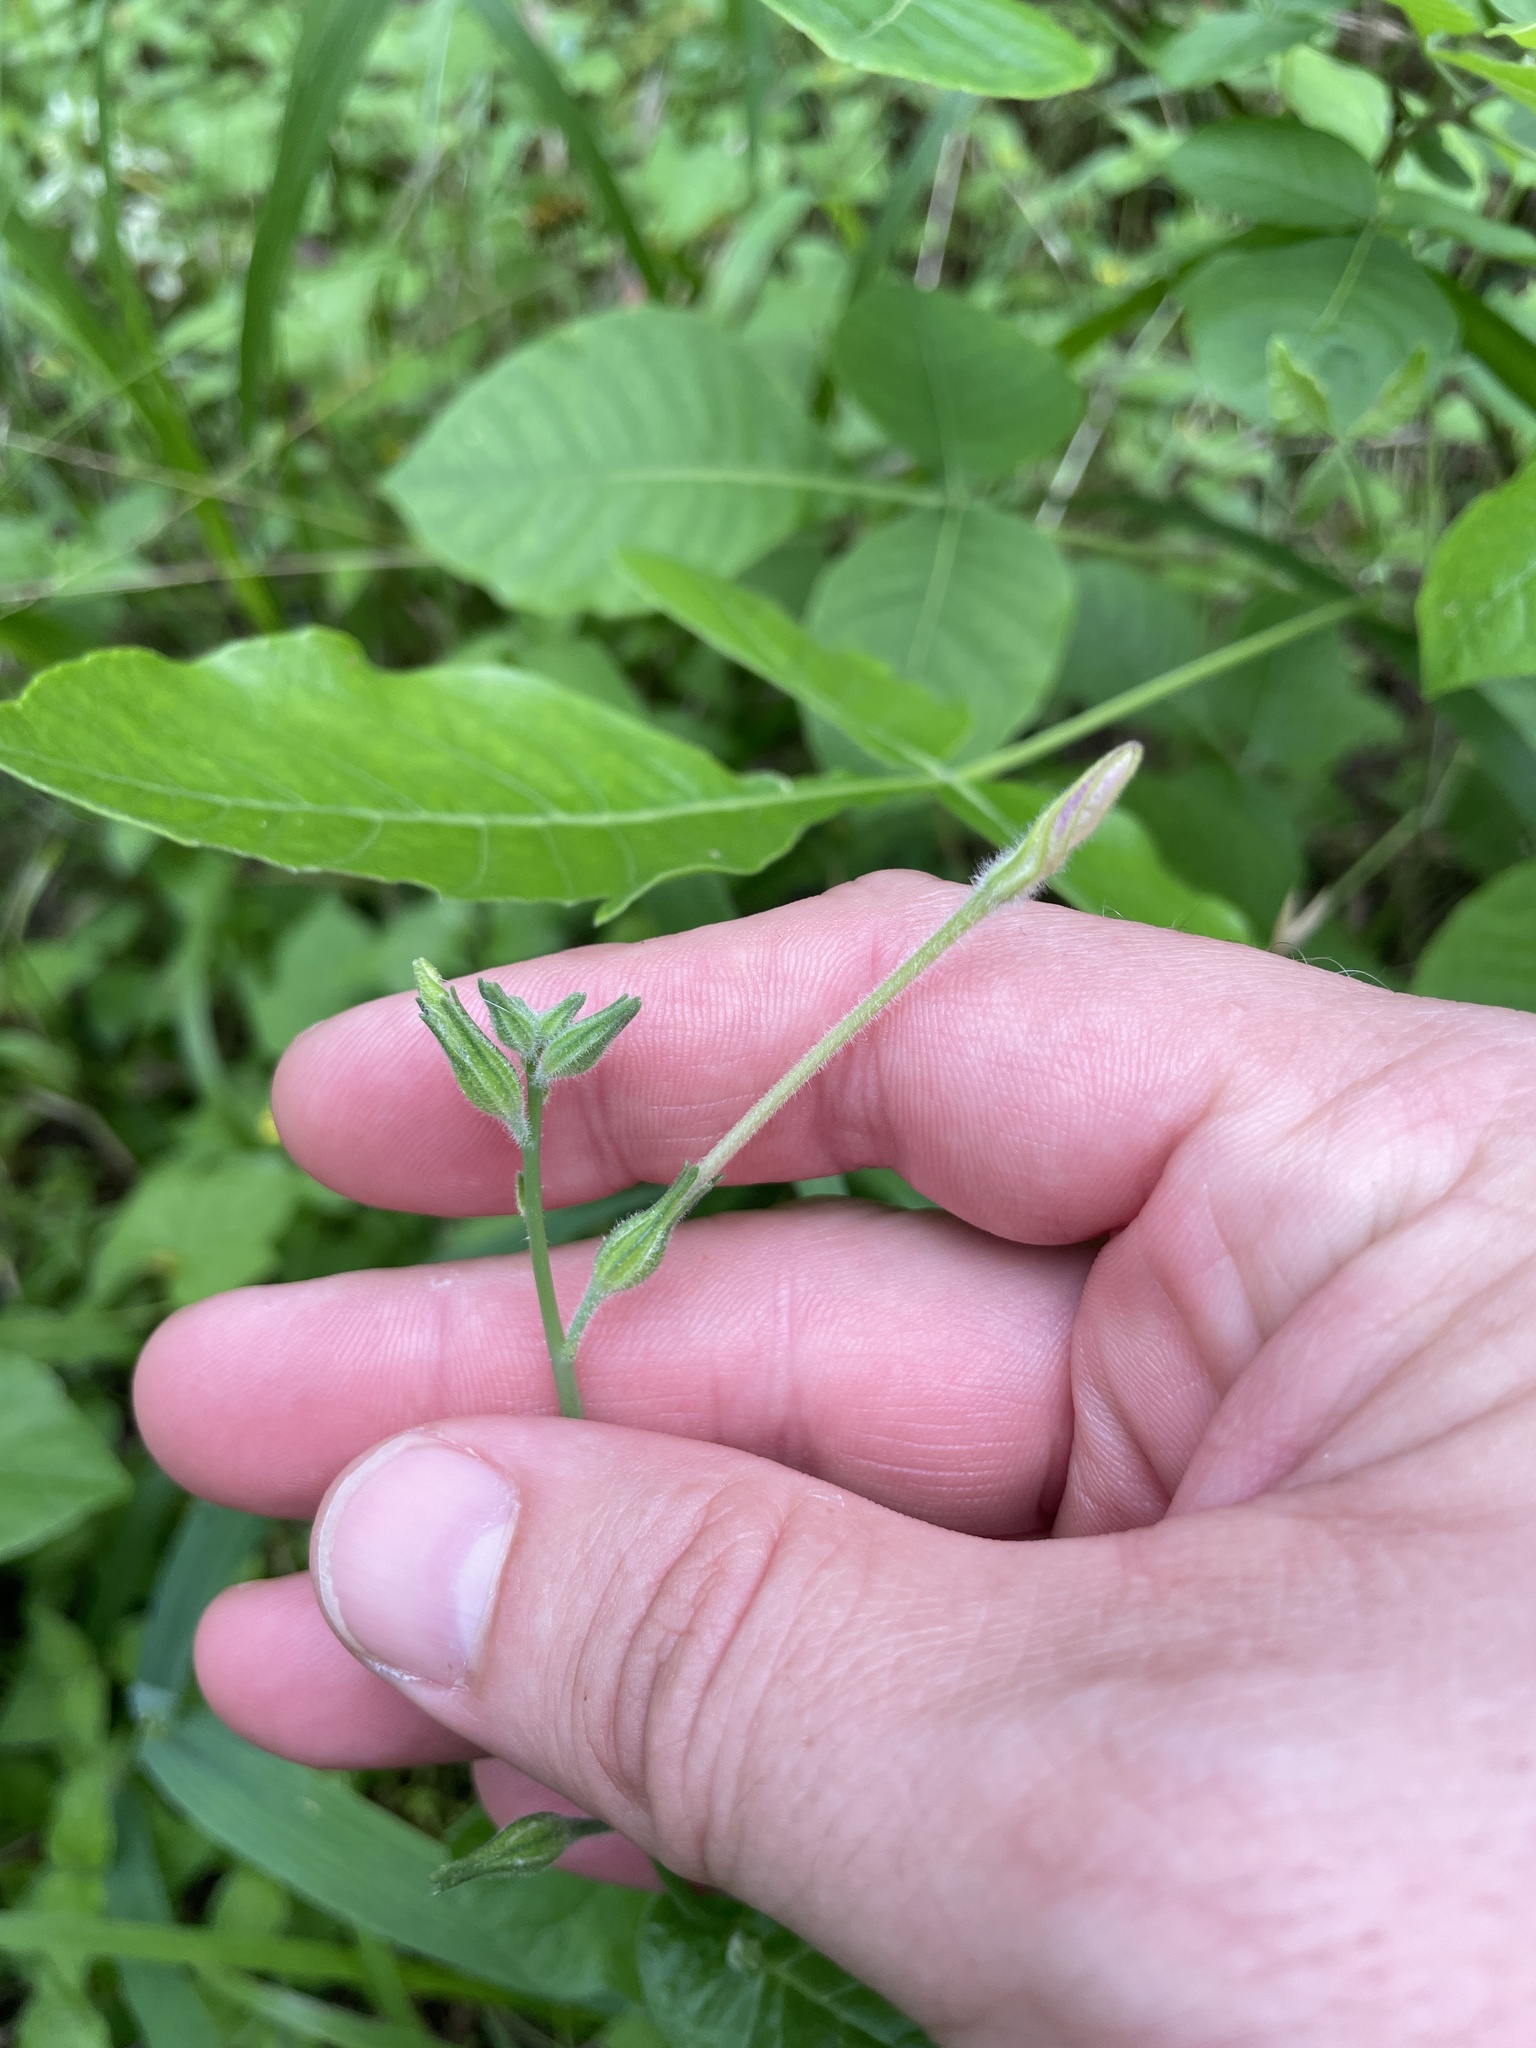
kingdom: Plantae
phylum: Tracheophyta
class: Magnoliopsida
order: Solanales
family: Solanaceae
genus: Nicotiana
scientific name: Nicotiana repanda
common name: Fiddle-leaf tobacco
